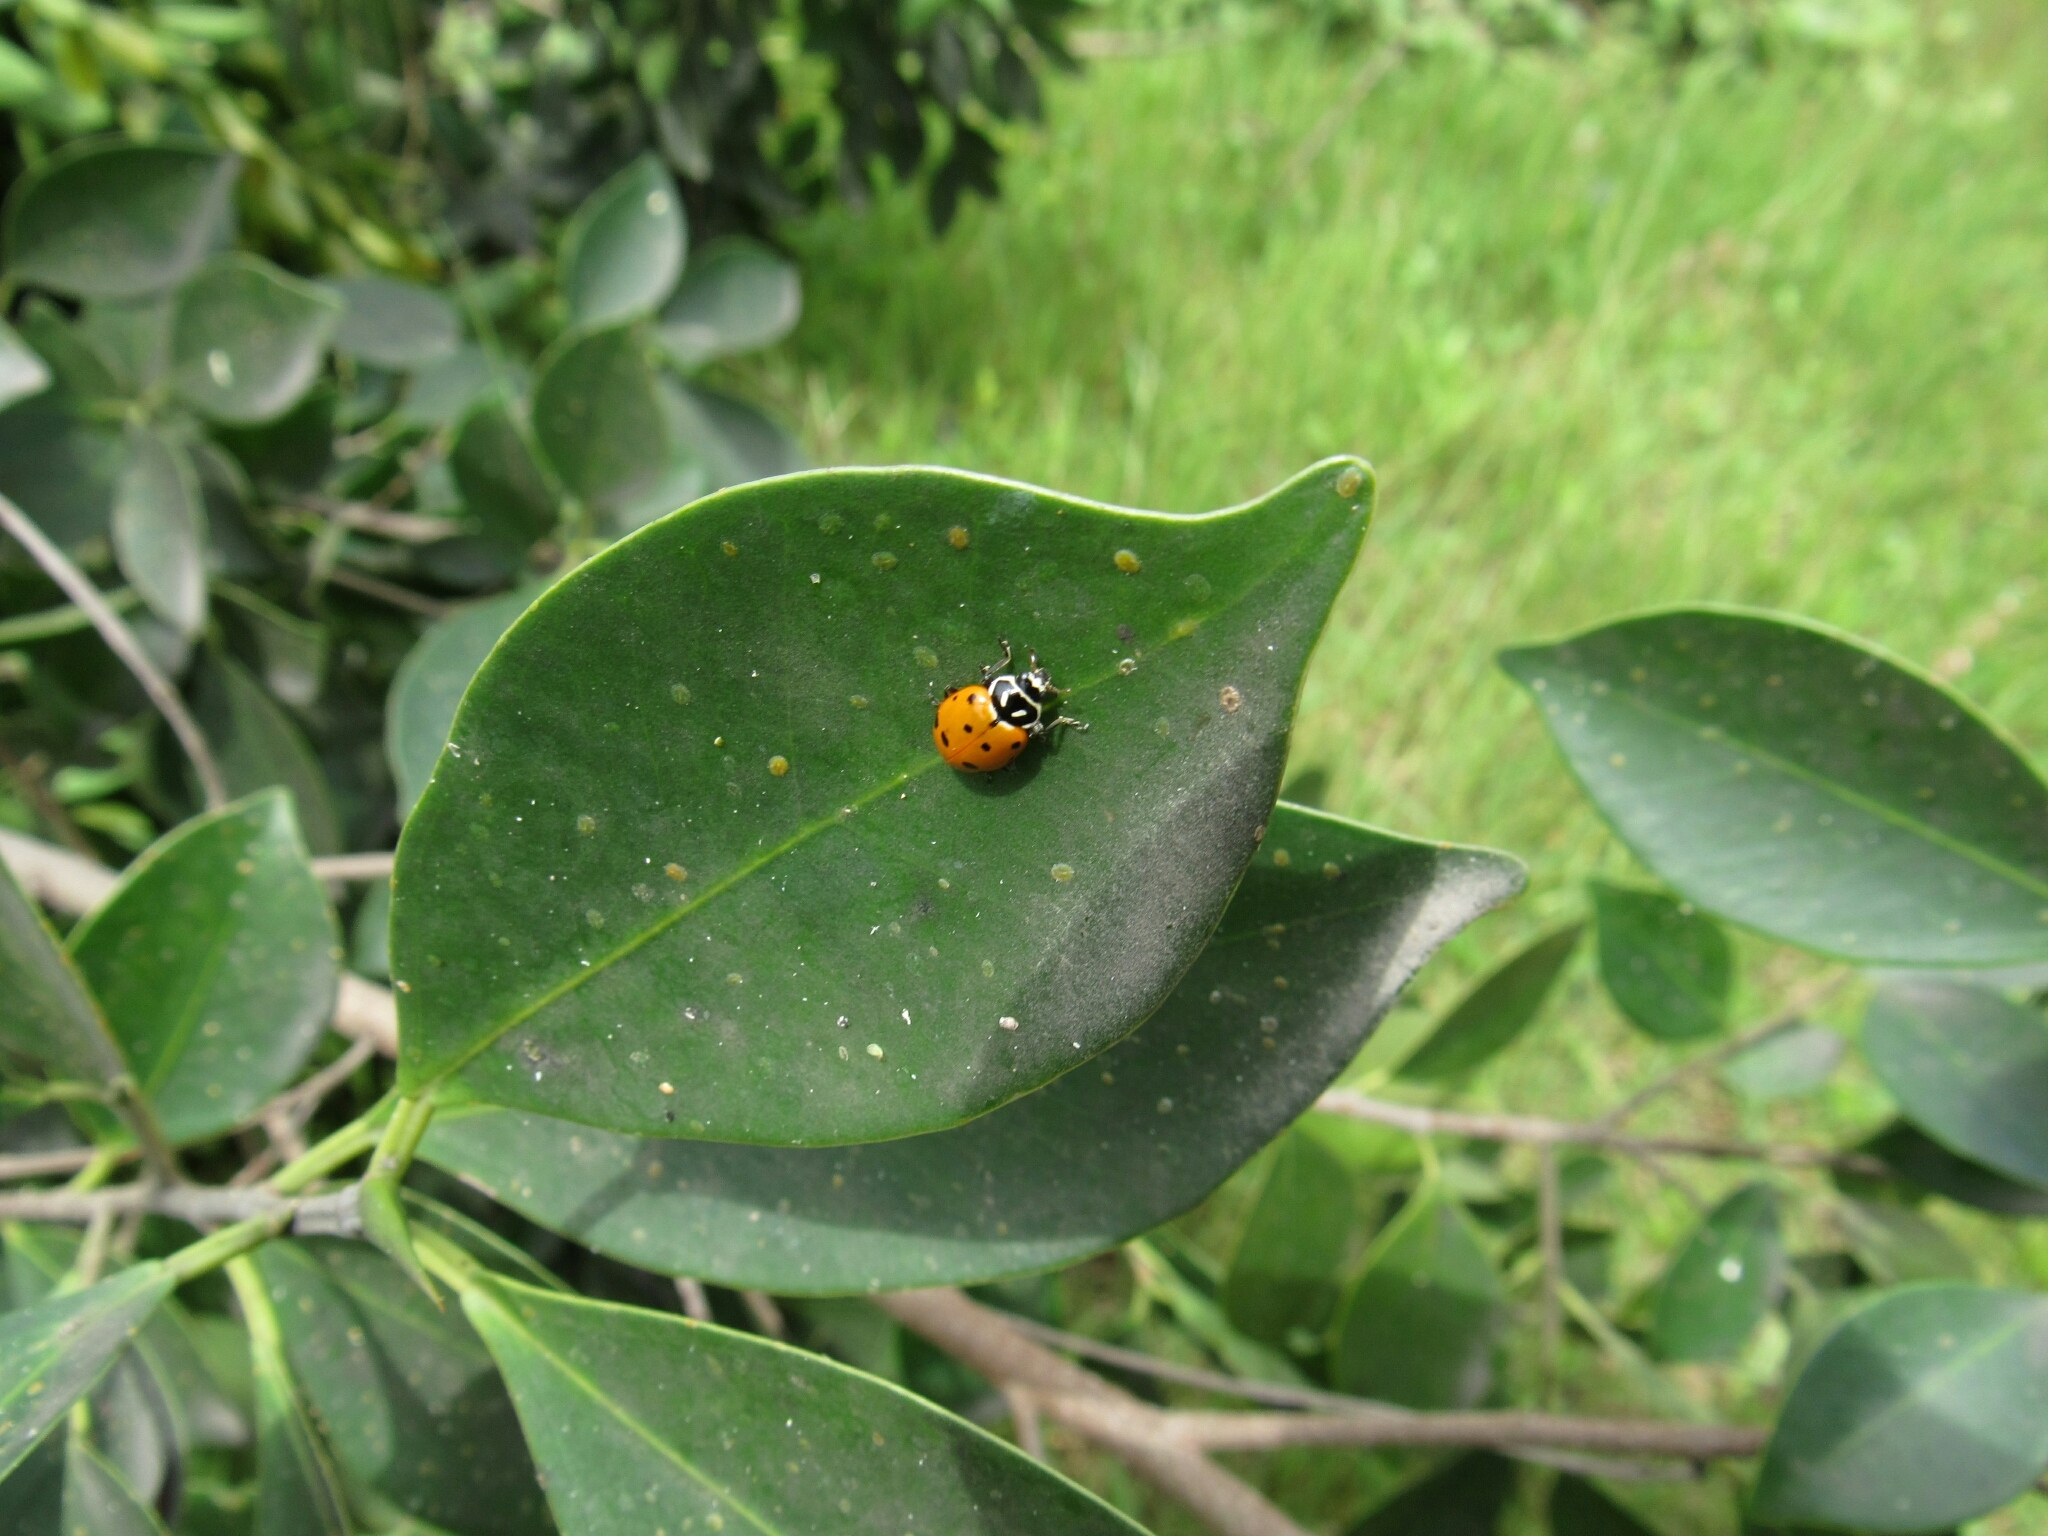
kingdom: Animalia
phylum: Arthropoda
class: Insecta
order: Coleoptera
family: Coccinellidae
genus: Hippodamia
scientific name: Hippodamia convergens
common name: Convergent lady beetle
